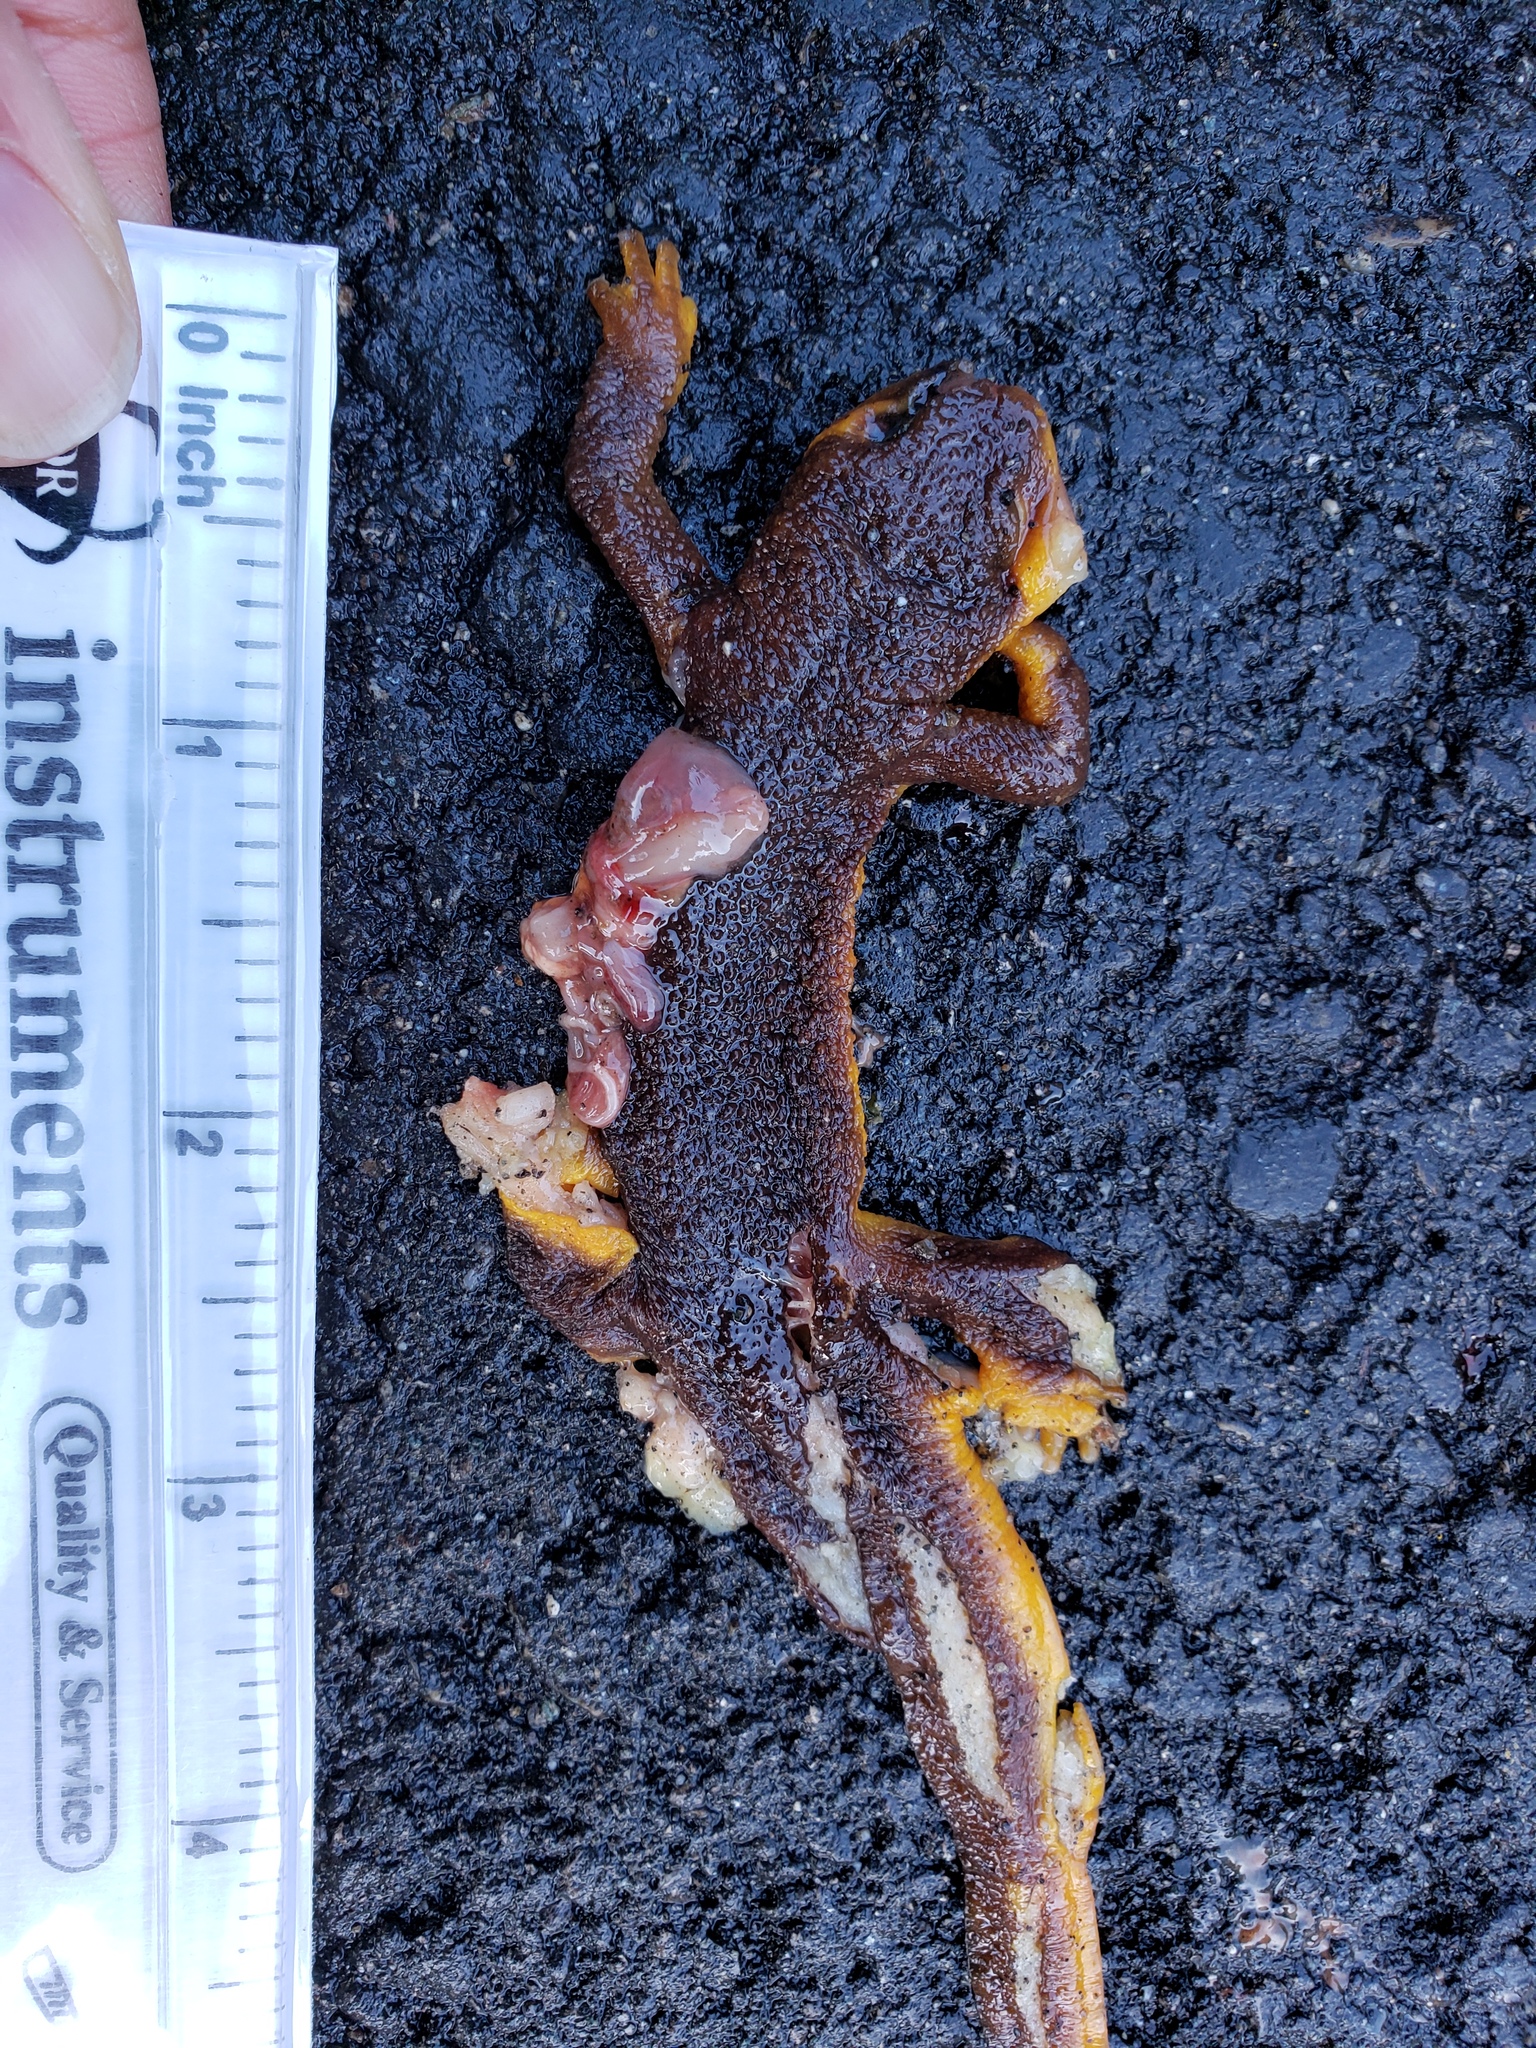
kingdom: Animalia
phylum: Chordata
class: Amphibia
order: Caudata
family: Salamandridae
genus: Taricha
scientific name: Taricha
